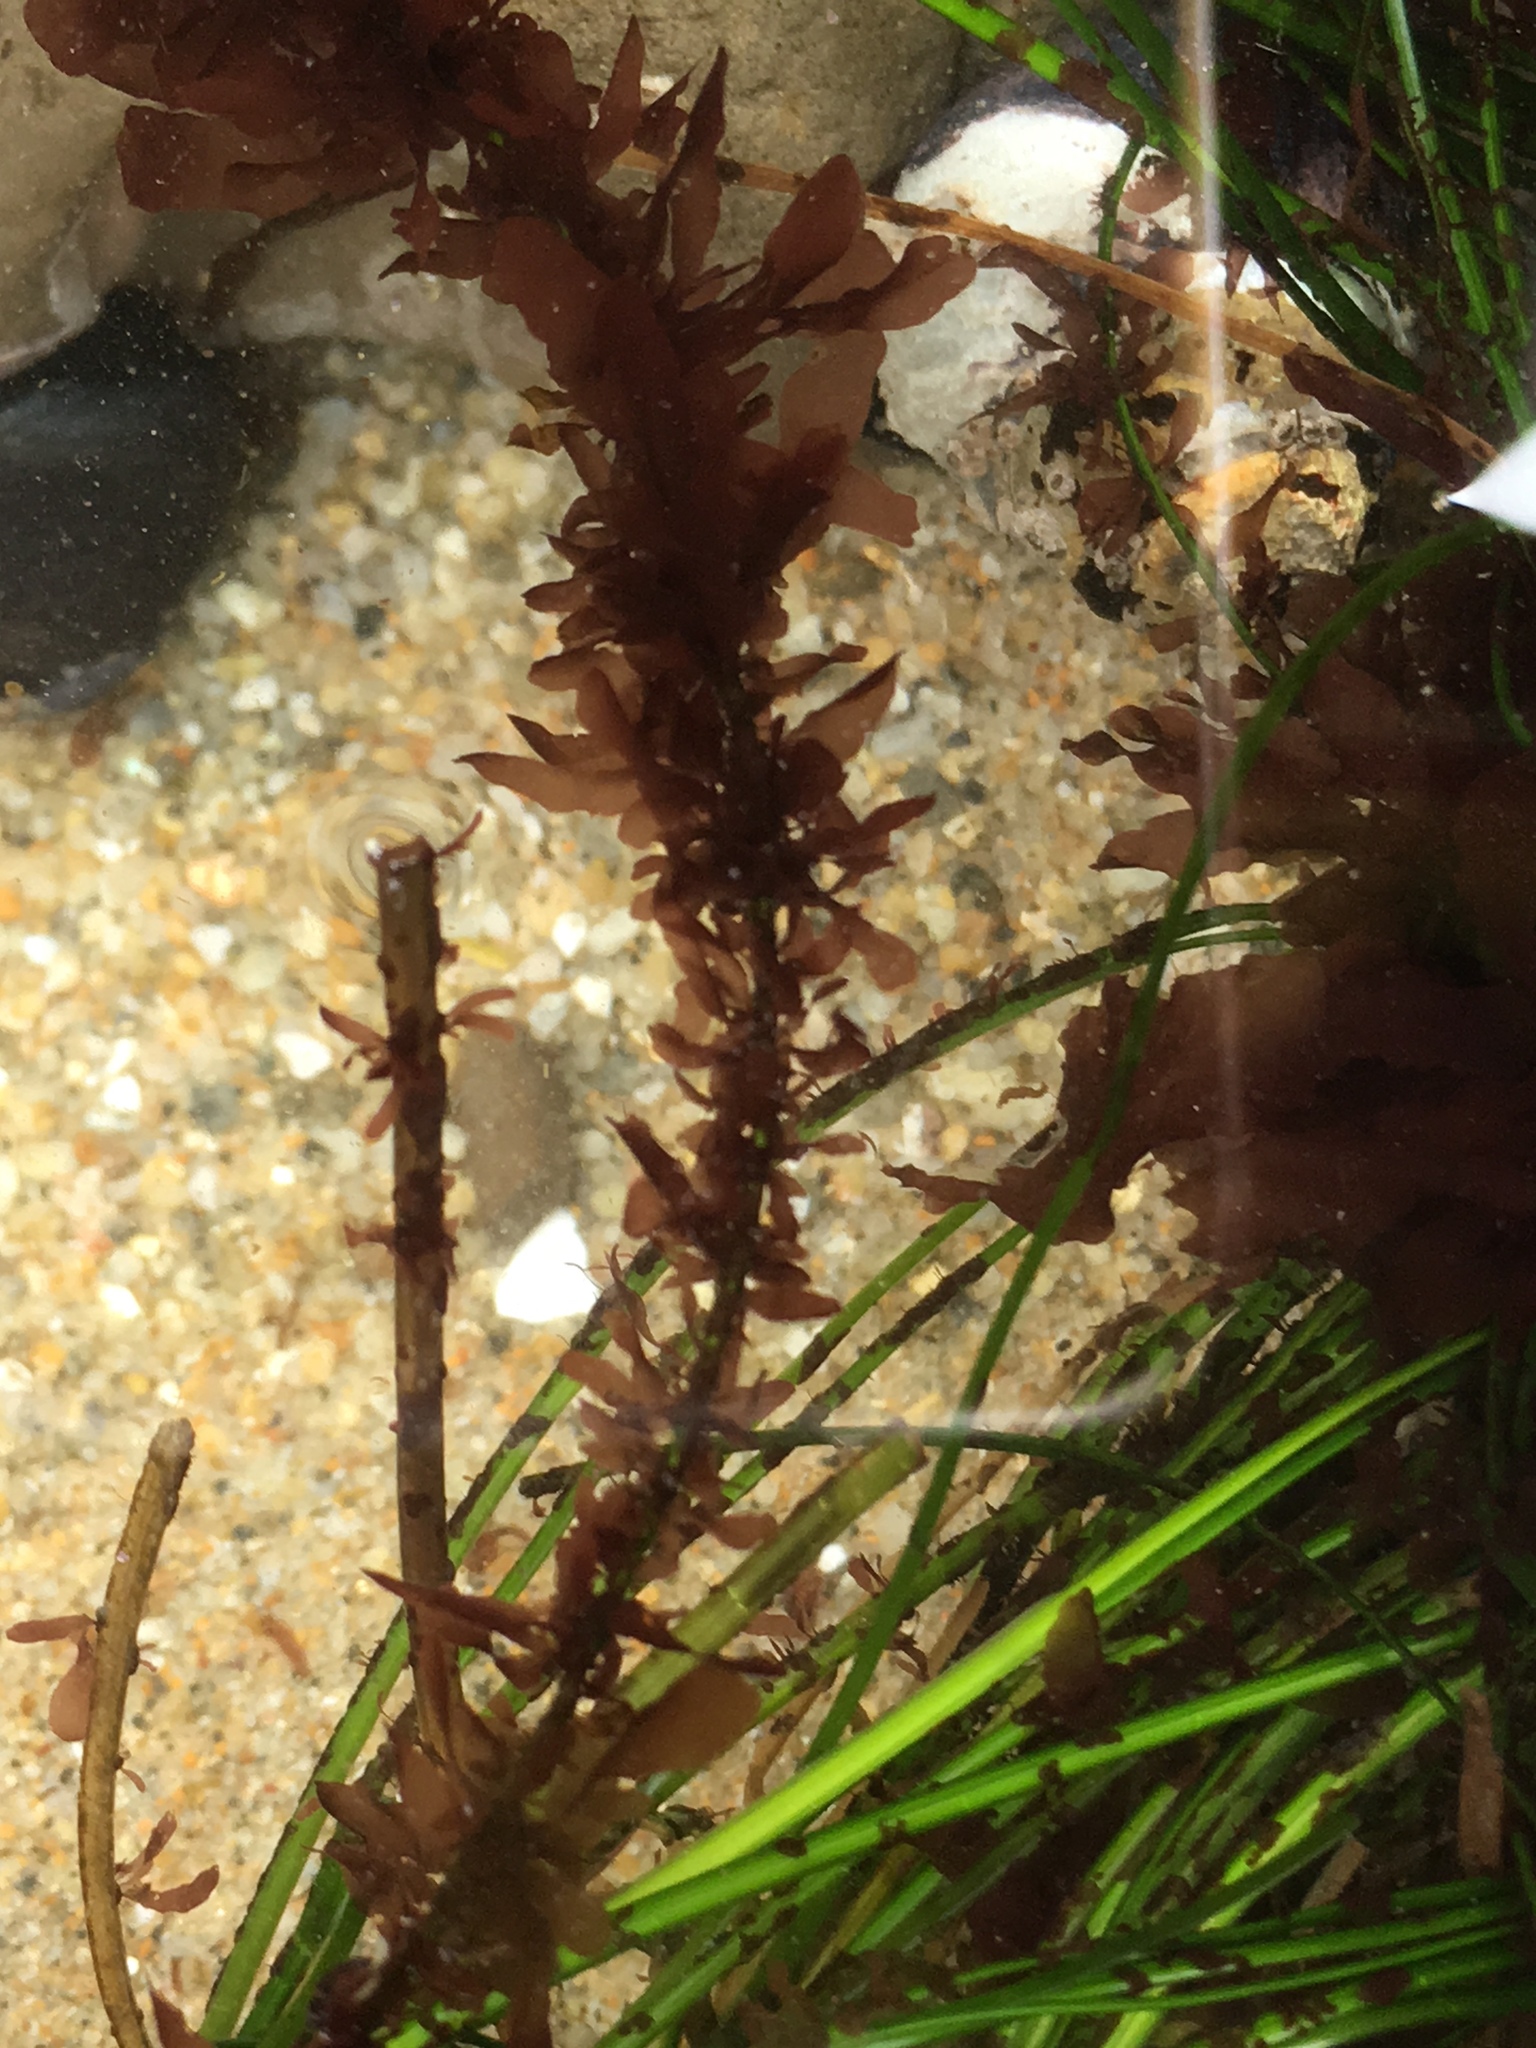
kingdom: Plantae
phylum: Rhodophyta
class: Compsopogonophyceae
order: Erythropeltidales
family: Erythrotrichiaceae
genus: Smithora
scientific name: Smithora naiadum
